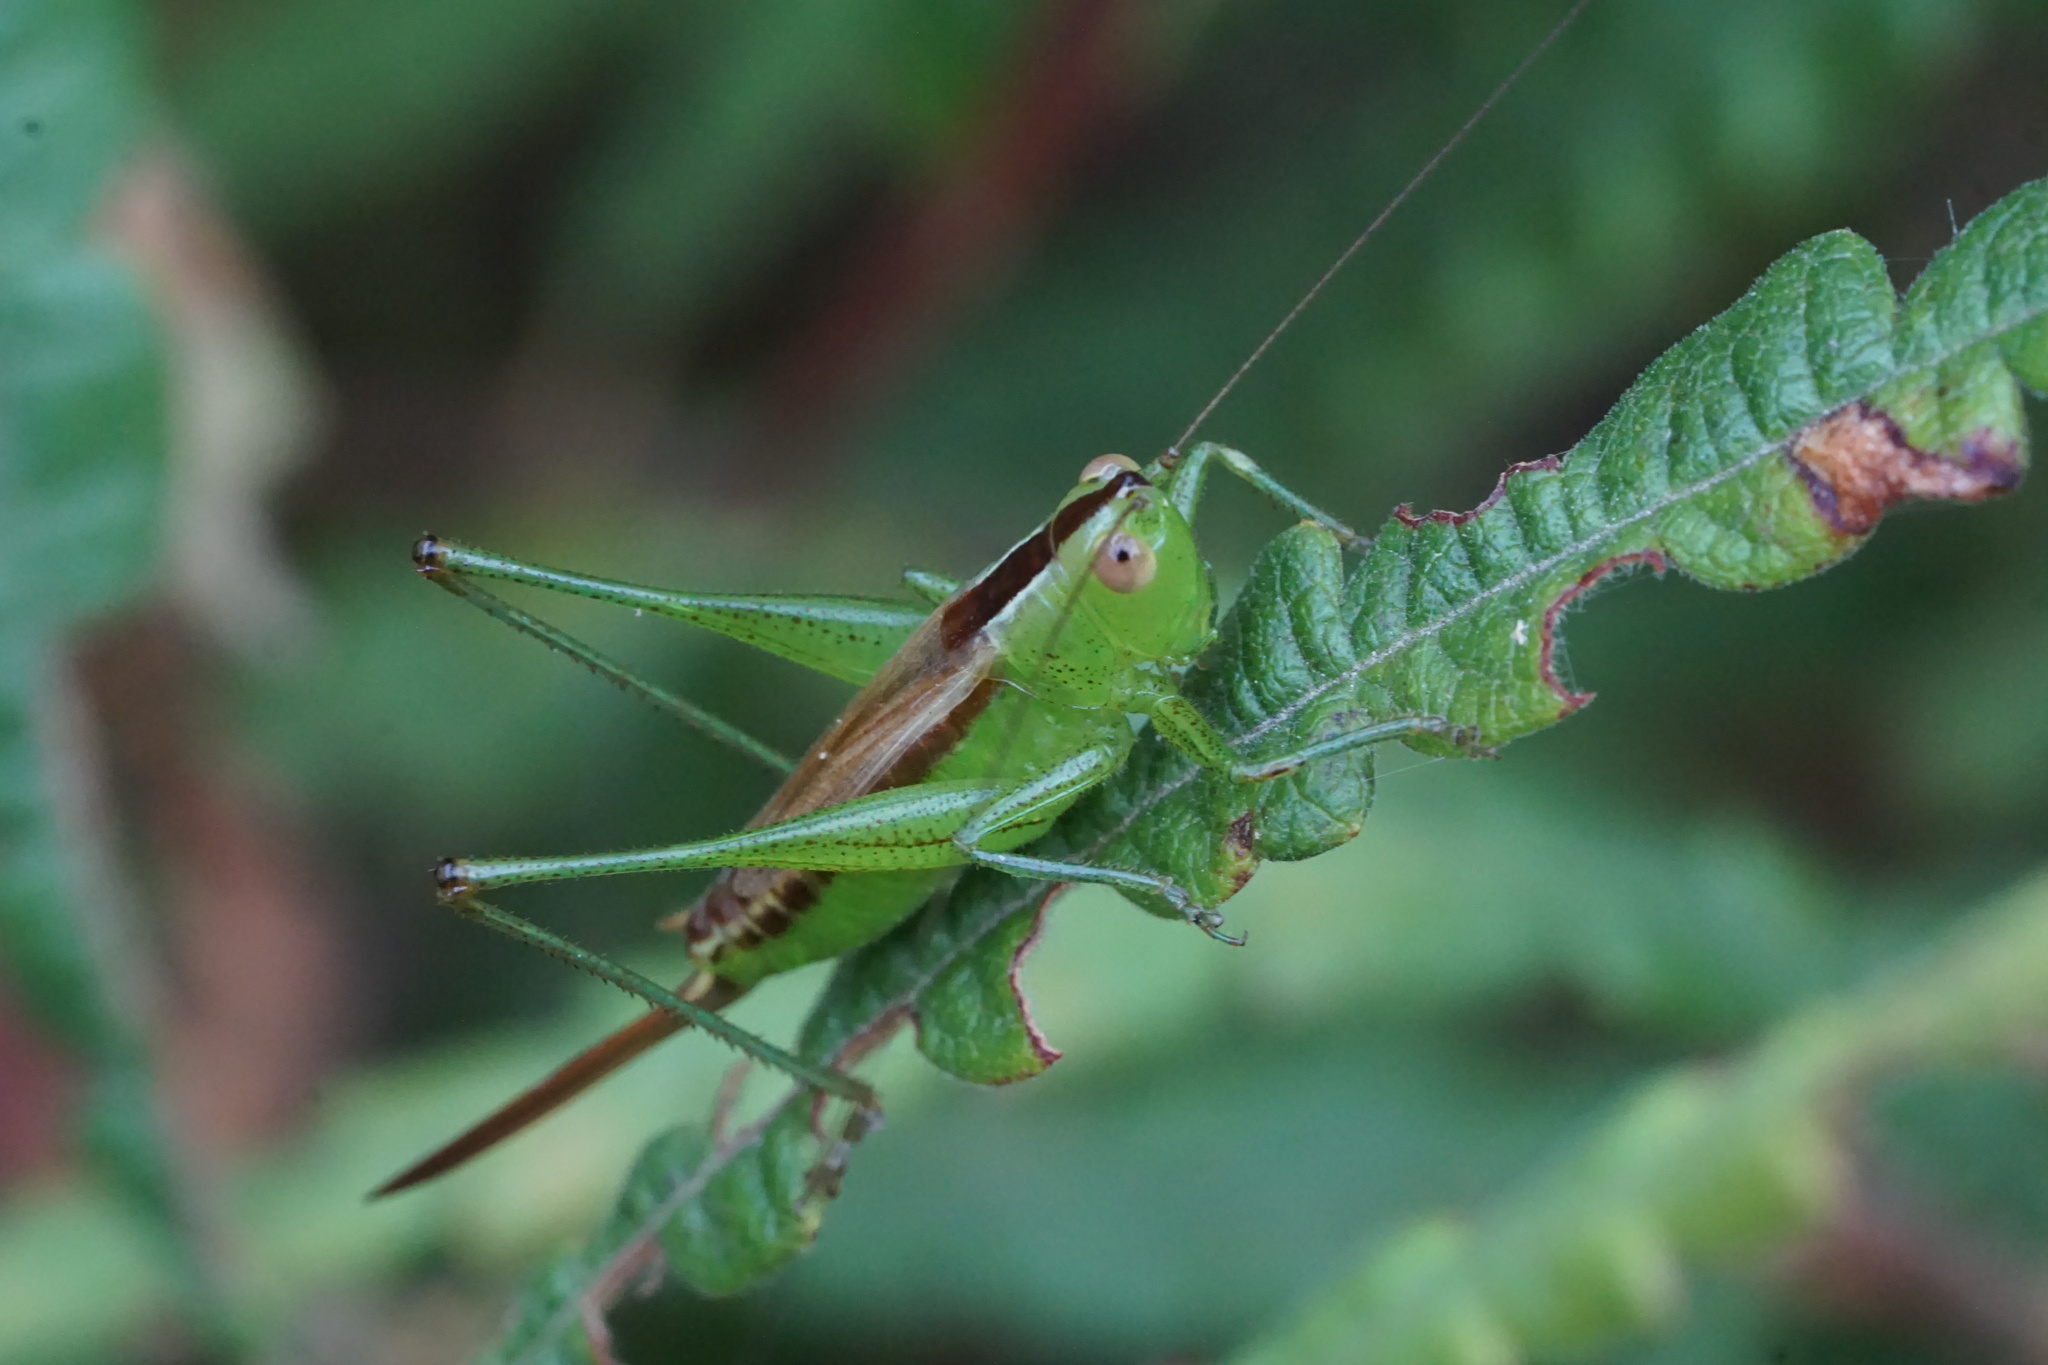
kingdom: Animalia
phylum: Arthropoda
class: Insecta
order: Orthoptera
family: Tettigoniidae
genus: Conocephalus
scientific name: Conocephalus brevipennis
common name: Short-winged meadow katydid
